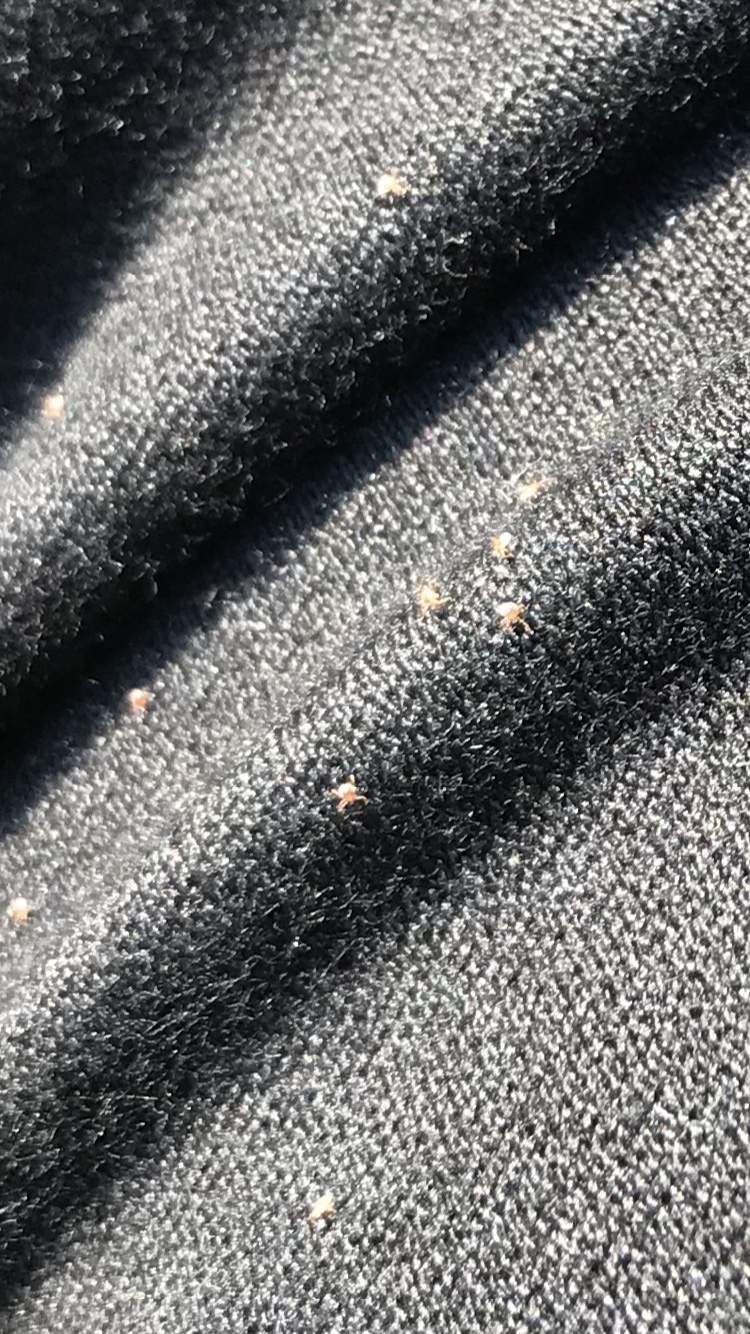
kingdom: Animalia
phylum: Arthropoda
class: Arachnida
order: Ixodida
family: Ixodidae
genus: Amblyomma
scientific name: Amblyomma americanum
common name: Lone star tick
